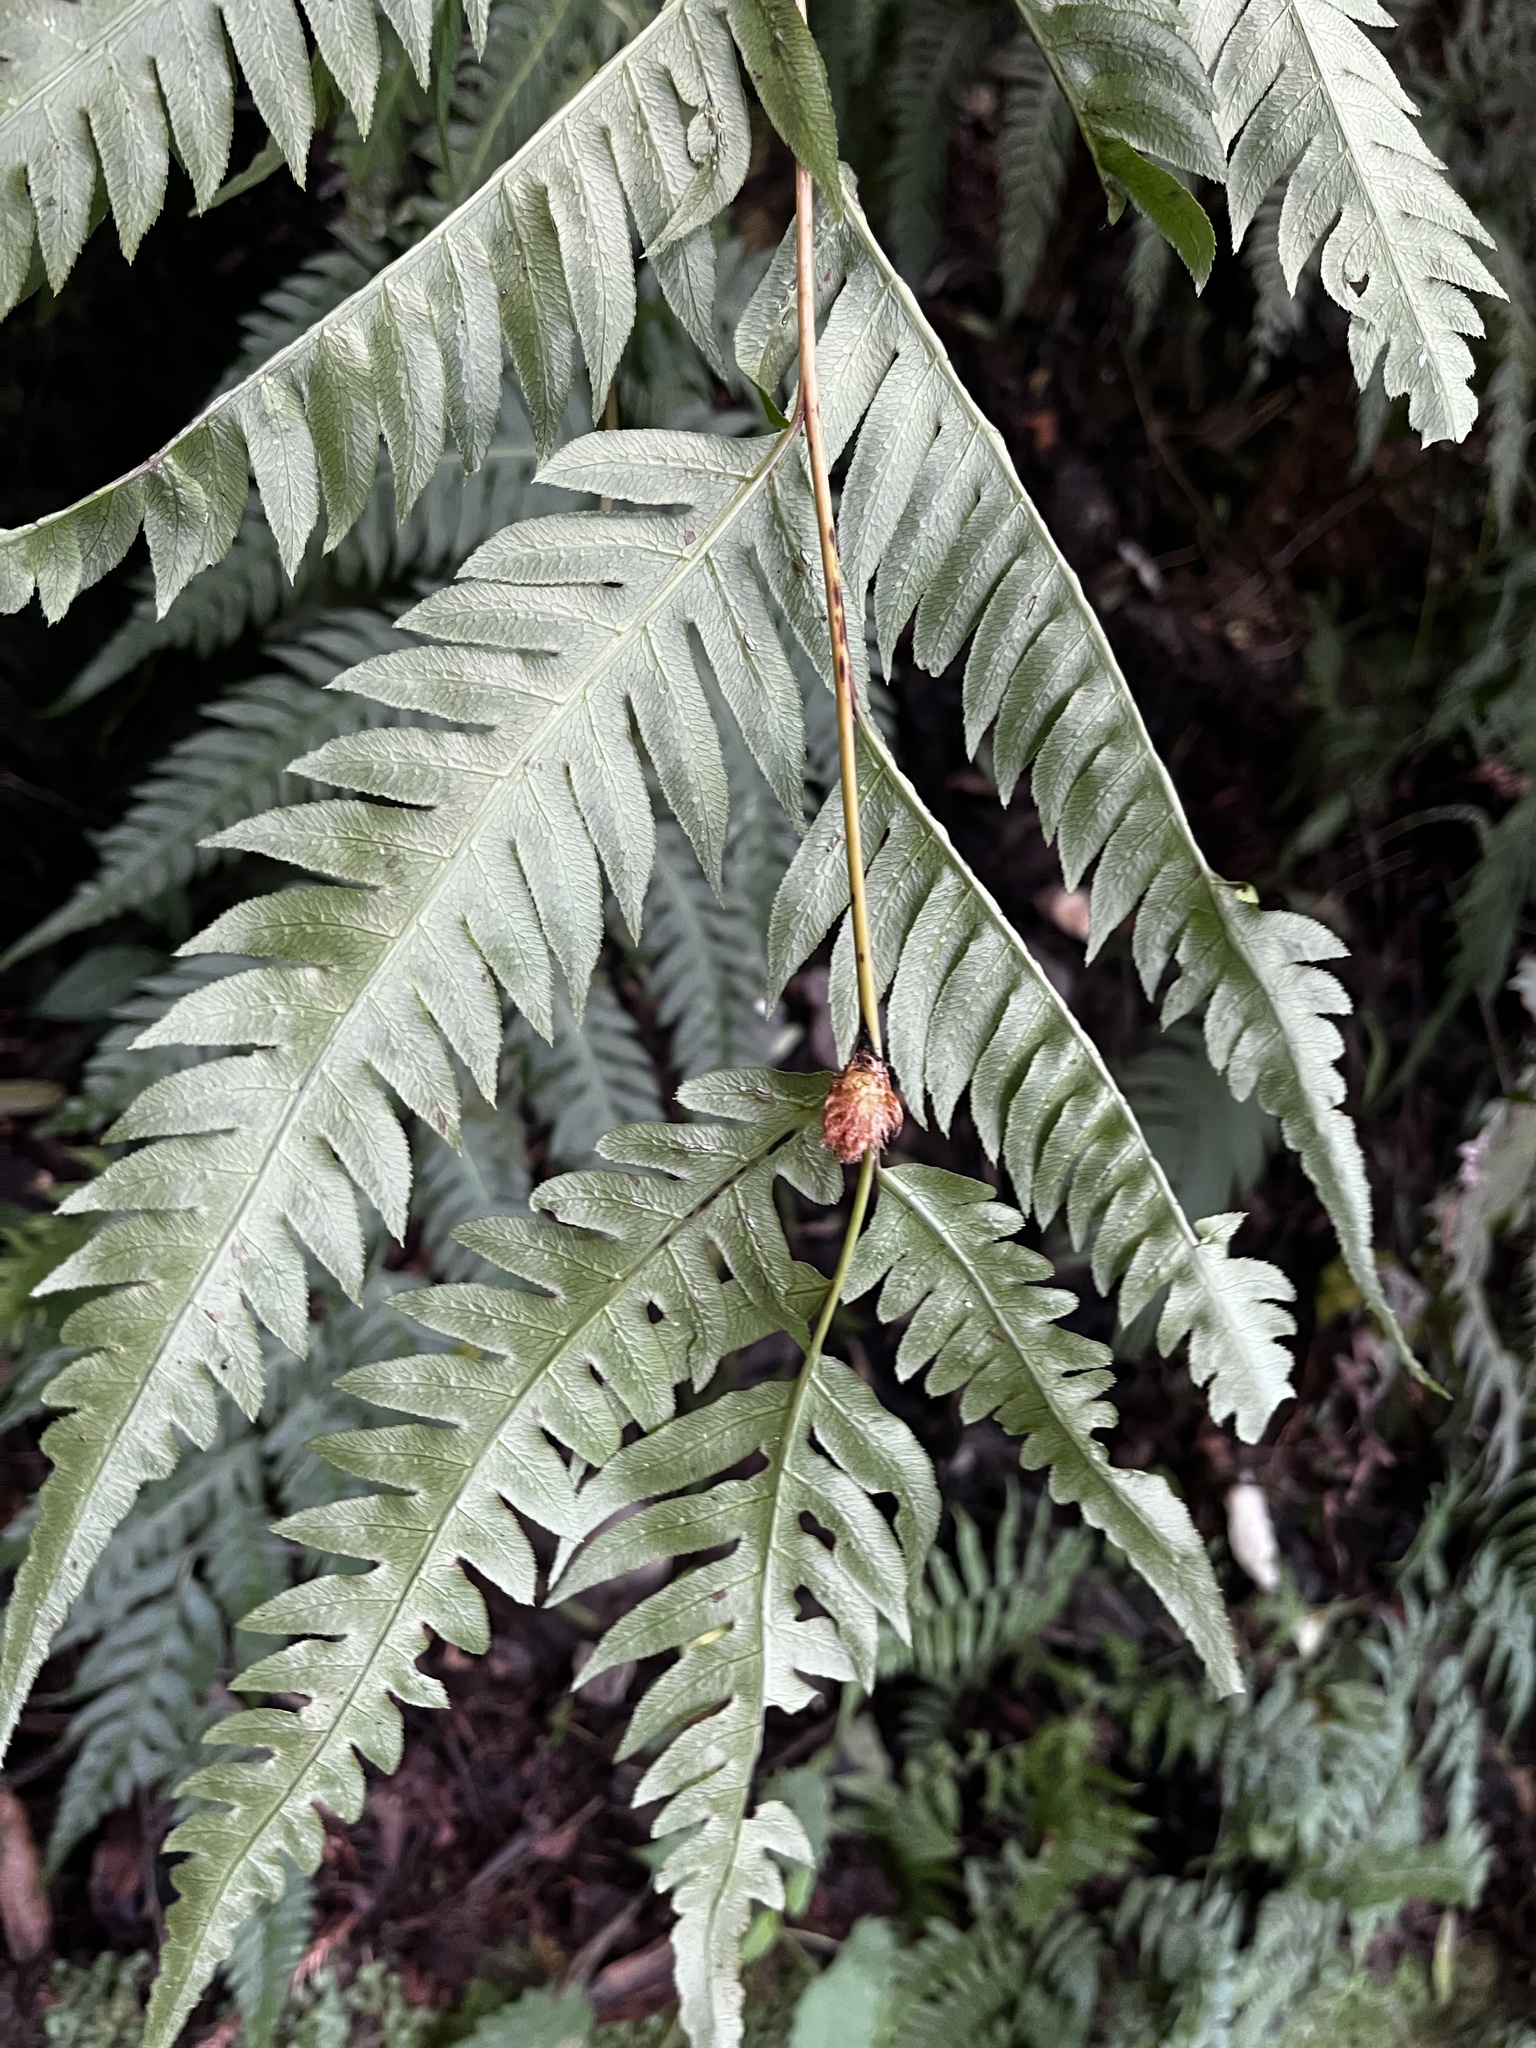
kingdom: Plantae
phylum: Tracheophyta
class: Polypodiopsida
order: Polypodiales
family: Blechnaceae
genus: Woodwardia
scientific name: Woodwardia unigemmata
